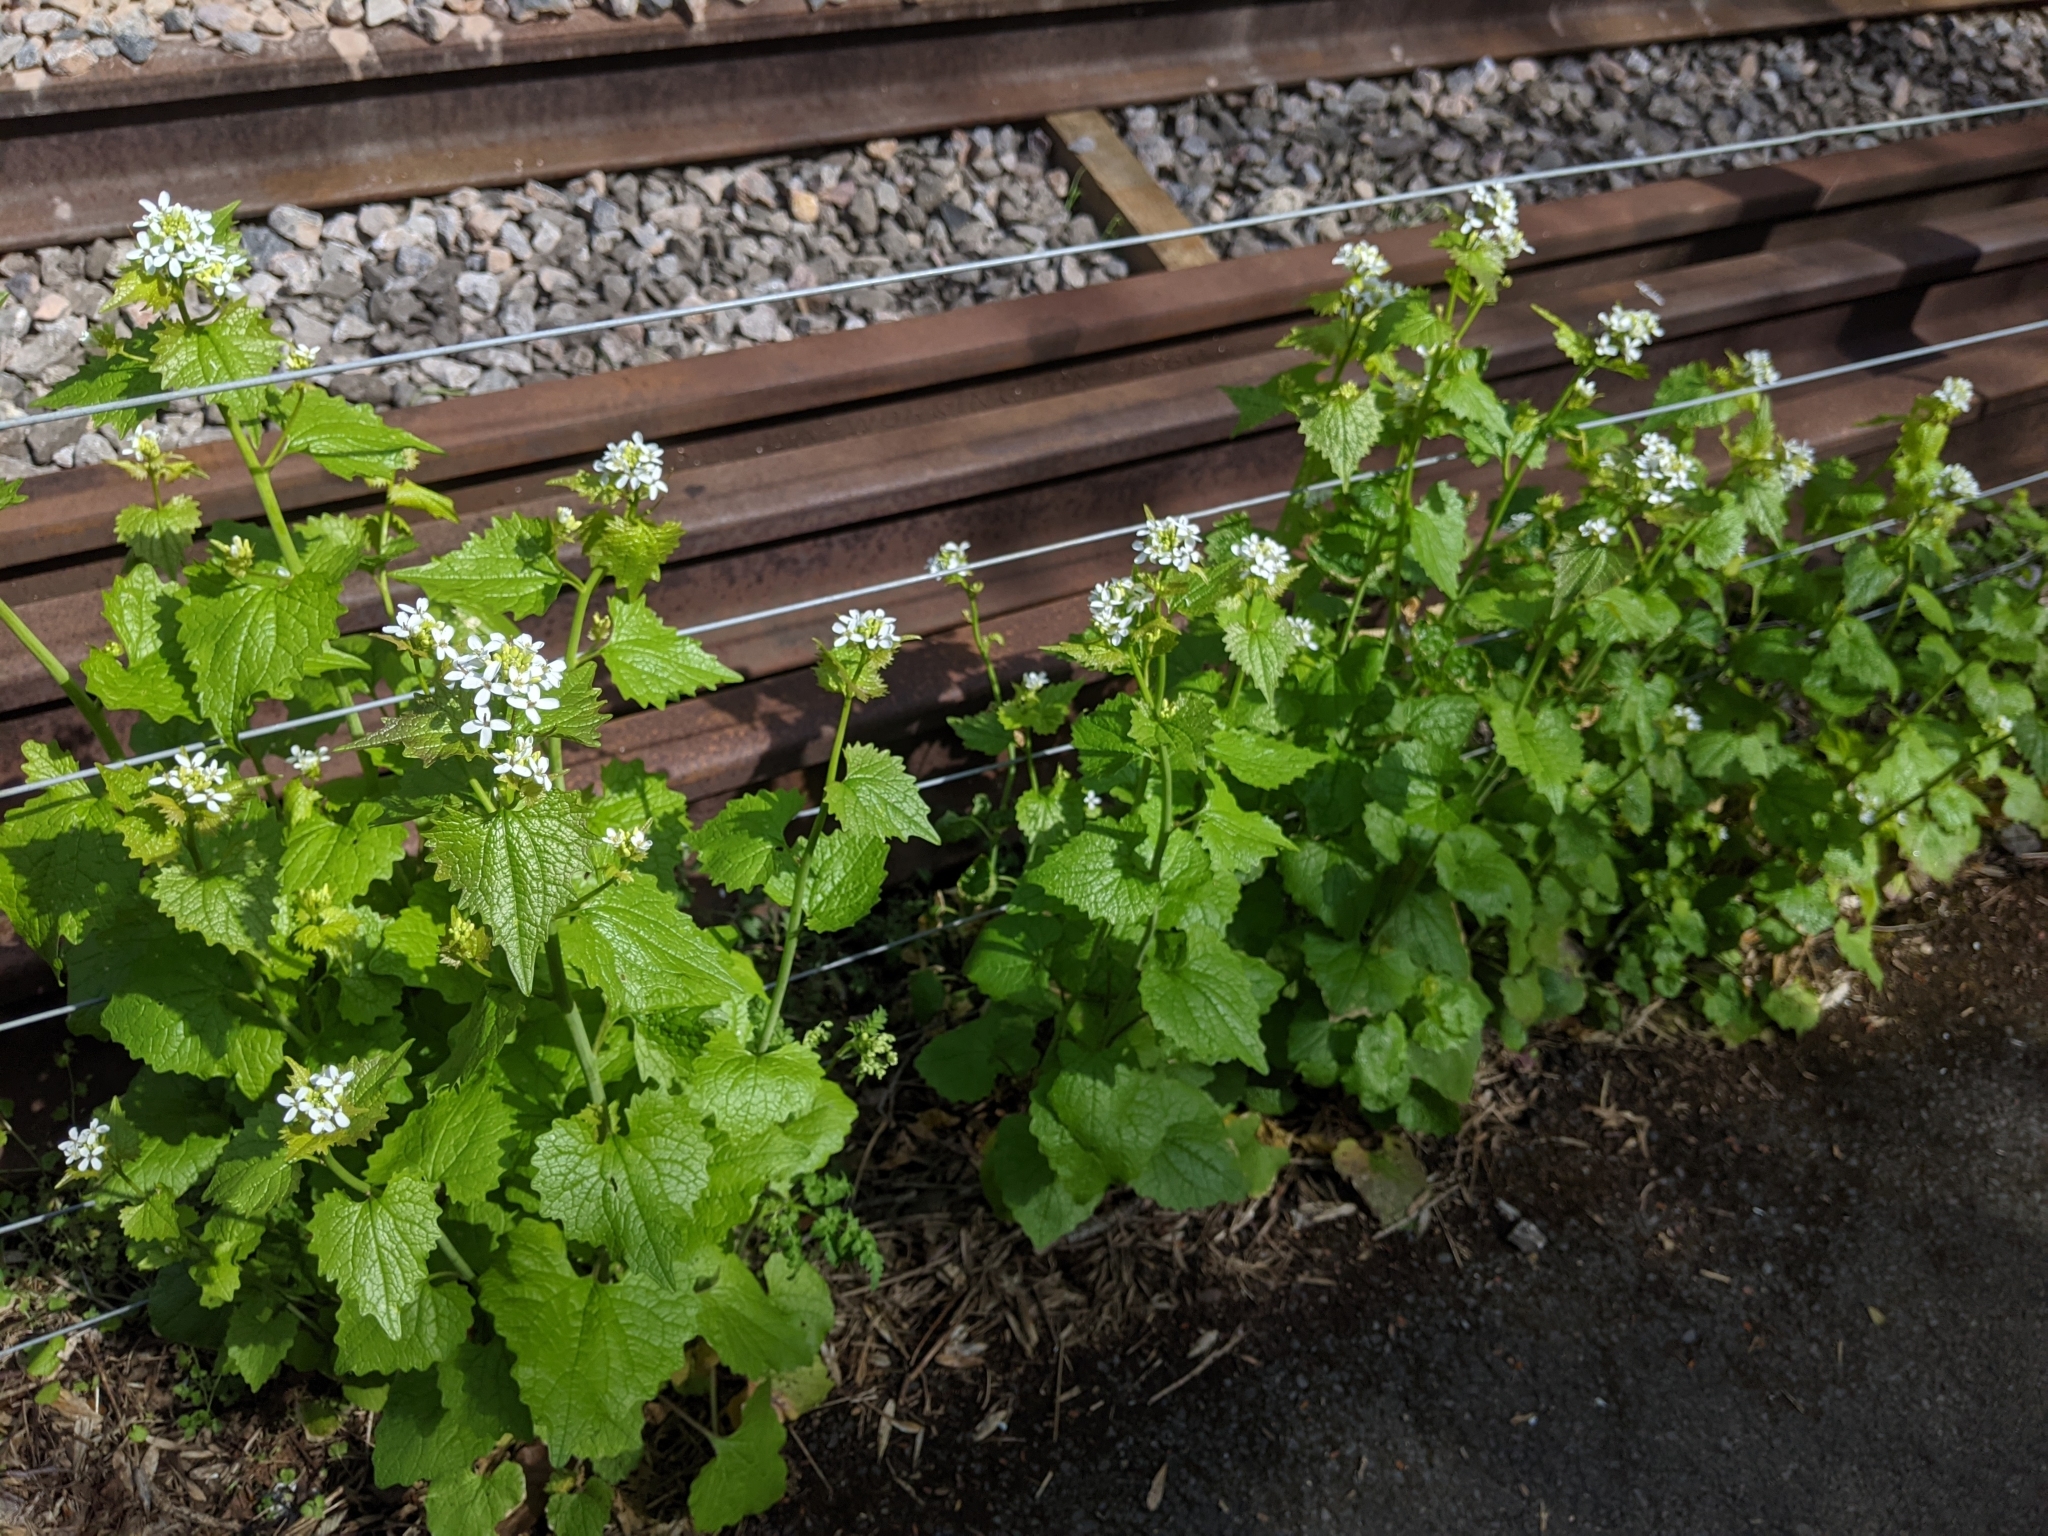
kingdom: Plantae
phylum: Tracheophyta
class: Magnoliopsida
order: Brassicales
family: Brassicaceae
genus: Alliaria
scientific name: Alliaria petiolata
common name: Garlic mustard
